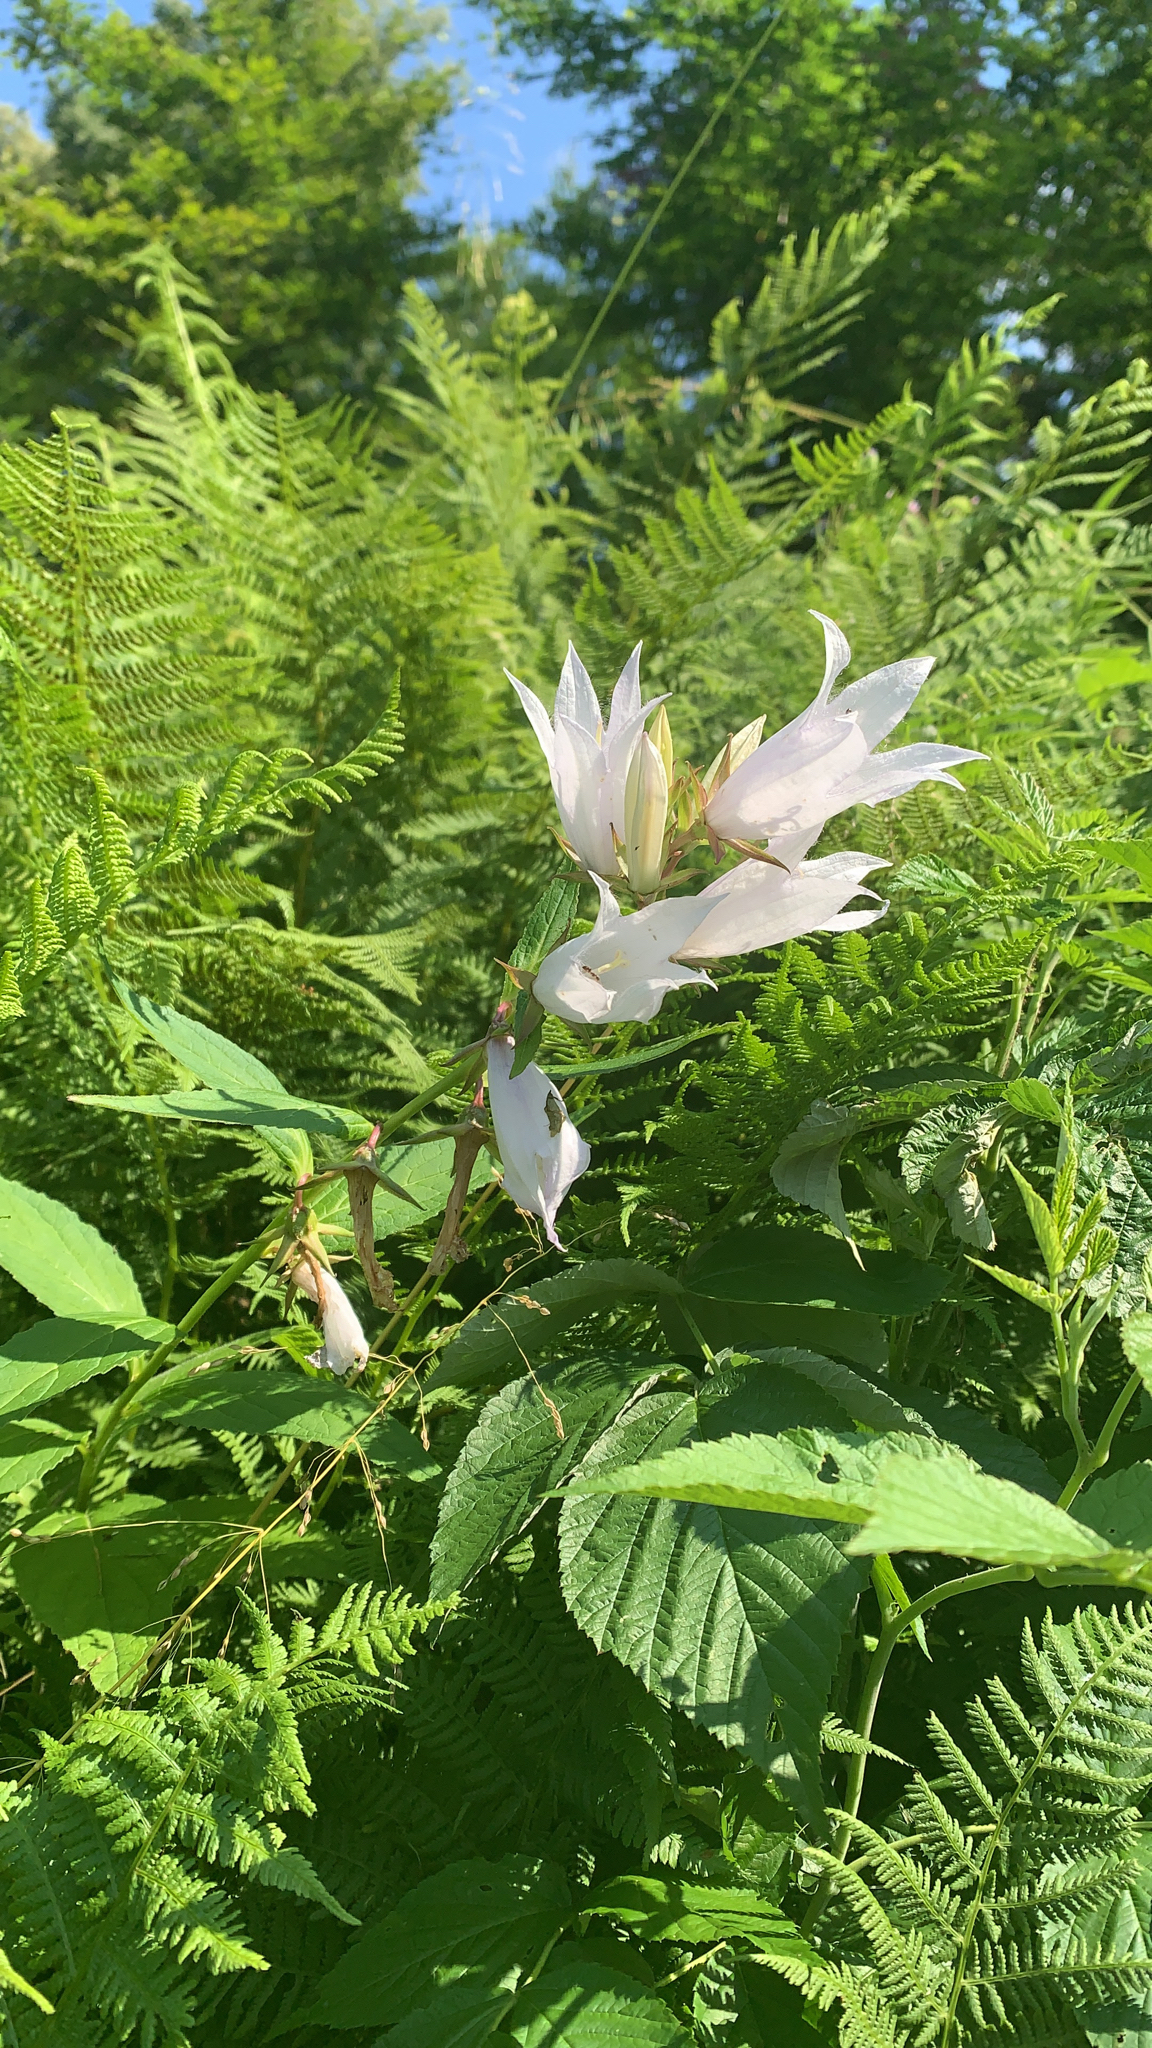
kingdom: Plantae
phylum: Tracheophyta
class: Magnoliopsida
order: Asterales
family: Campanulaceae
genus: Campanula
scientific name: Campanula latifolia
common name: Giant bellflower
